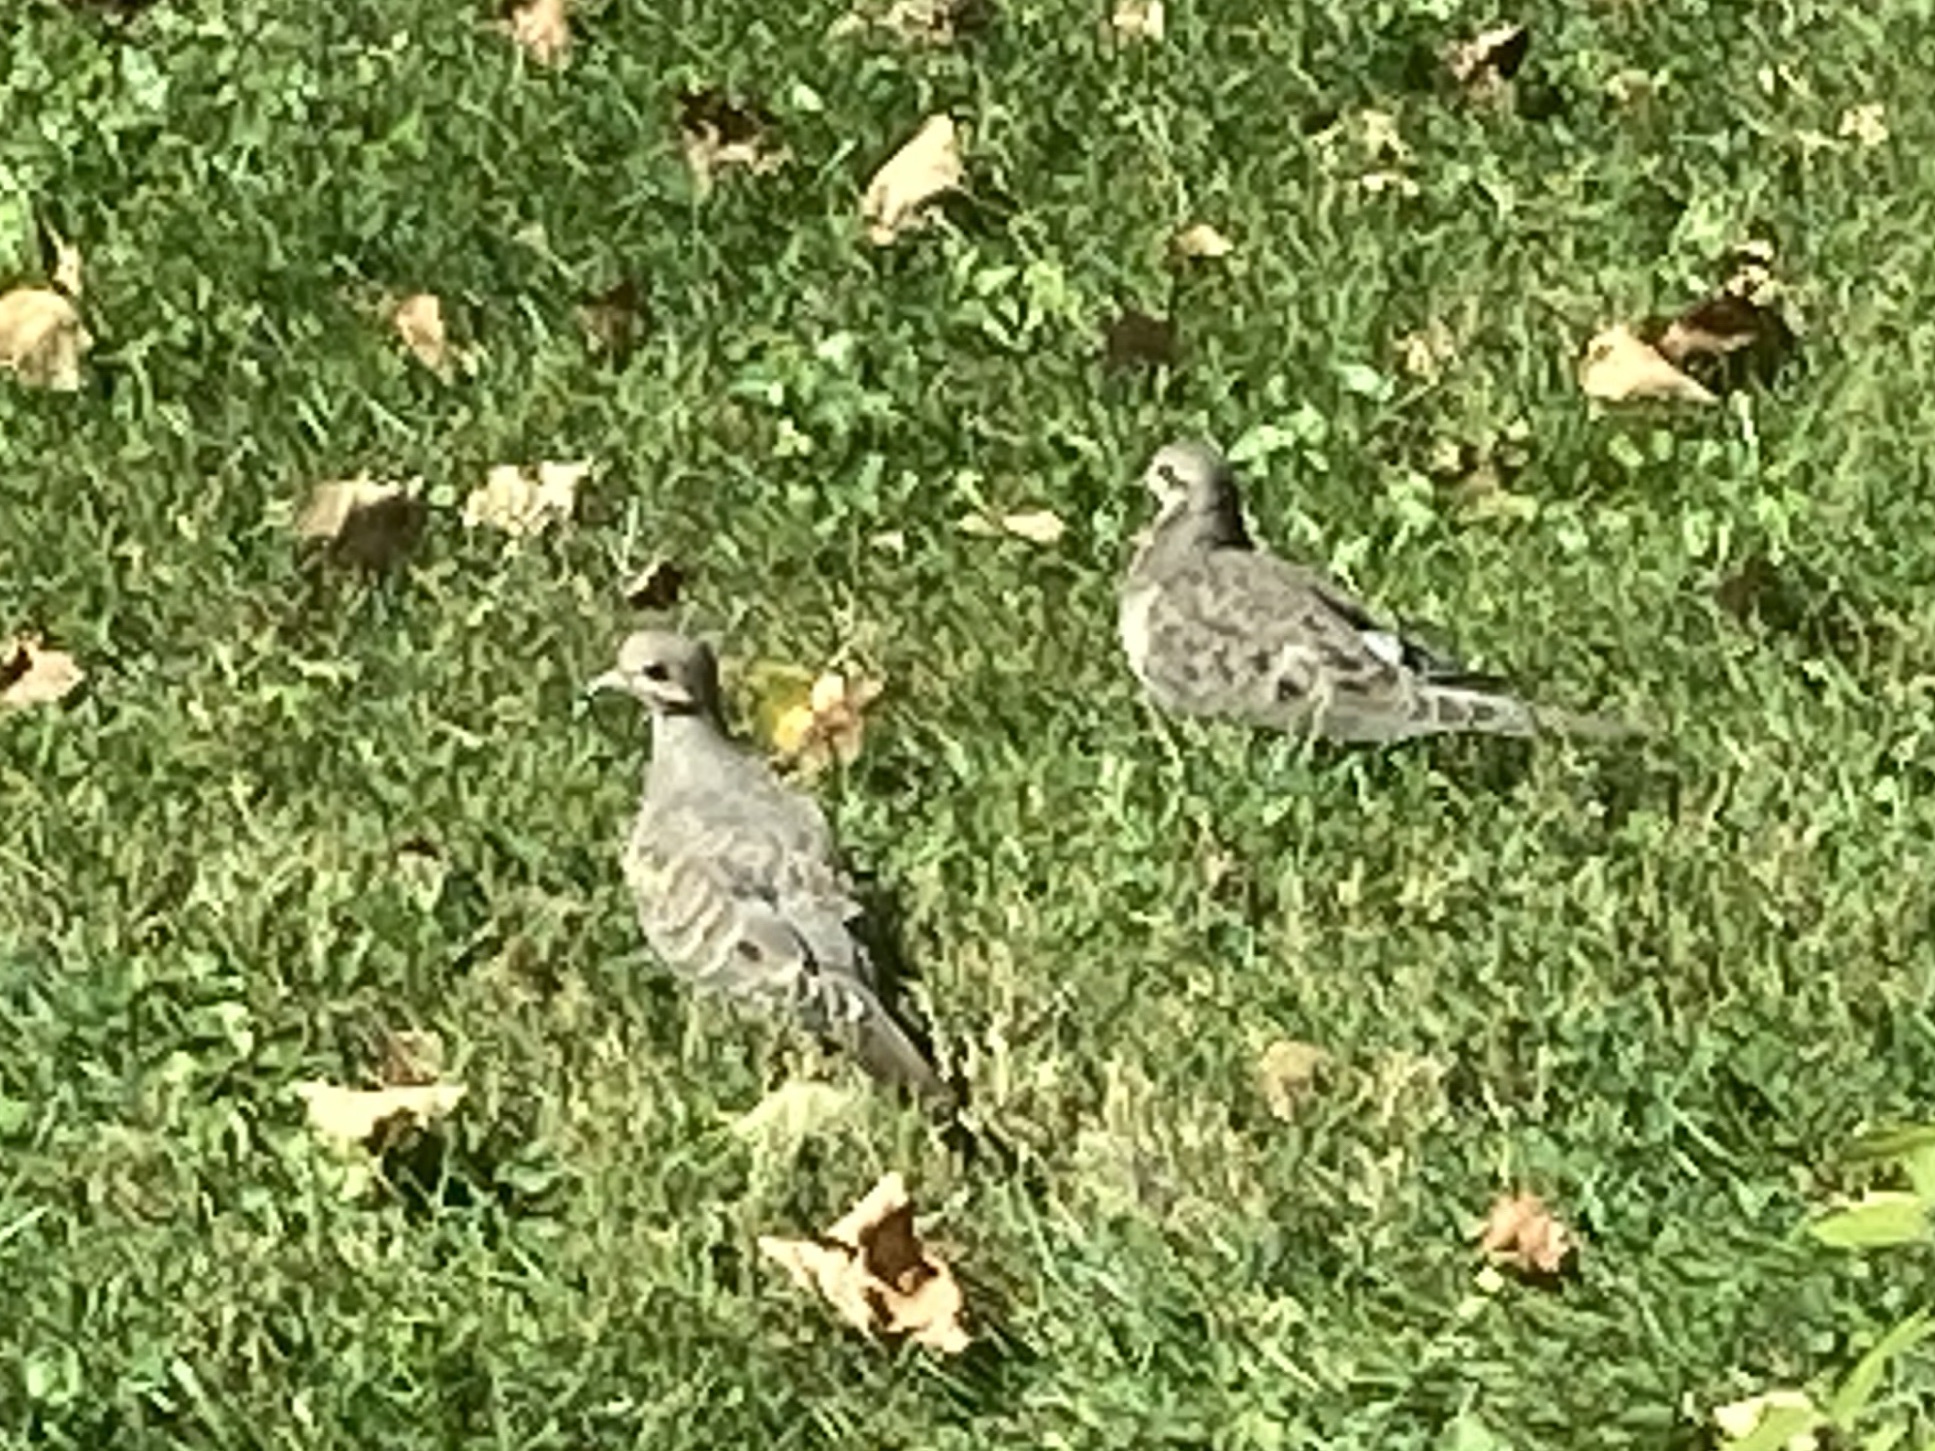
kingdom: Animalia
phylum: Chordata
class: Aves
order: Columbiformes
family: Columbidae
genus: Zenaida
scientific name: Zenaida macroura
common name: Mourning dove
